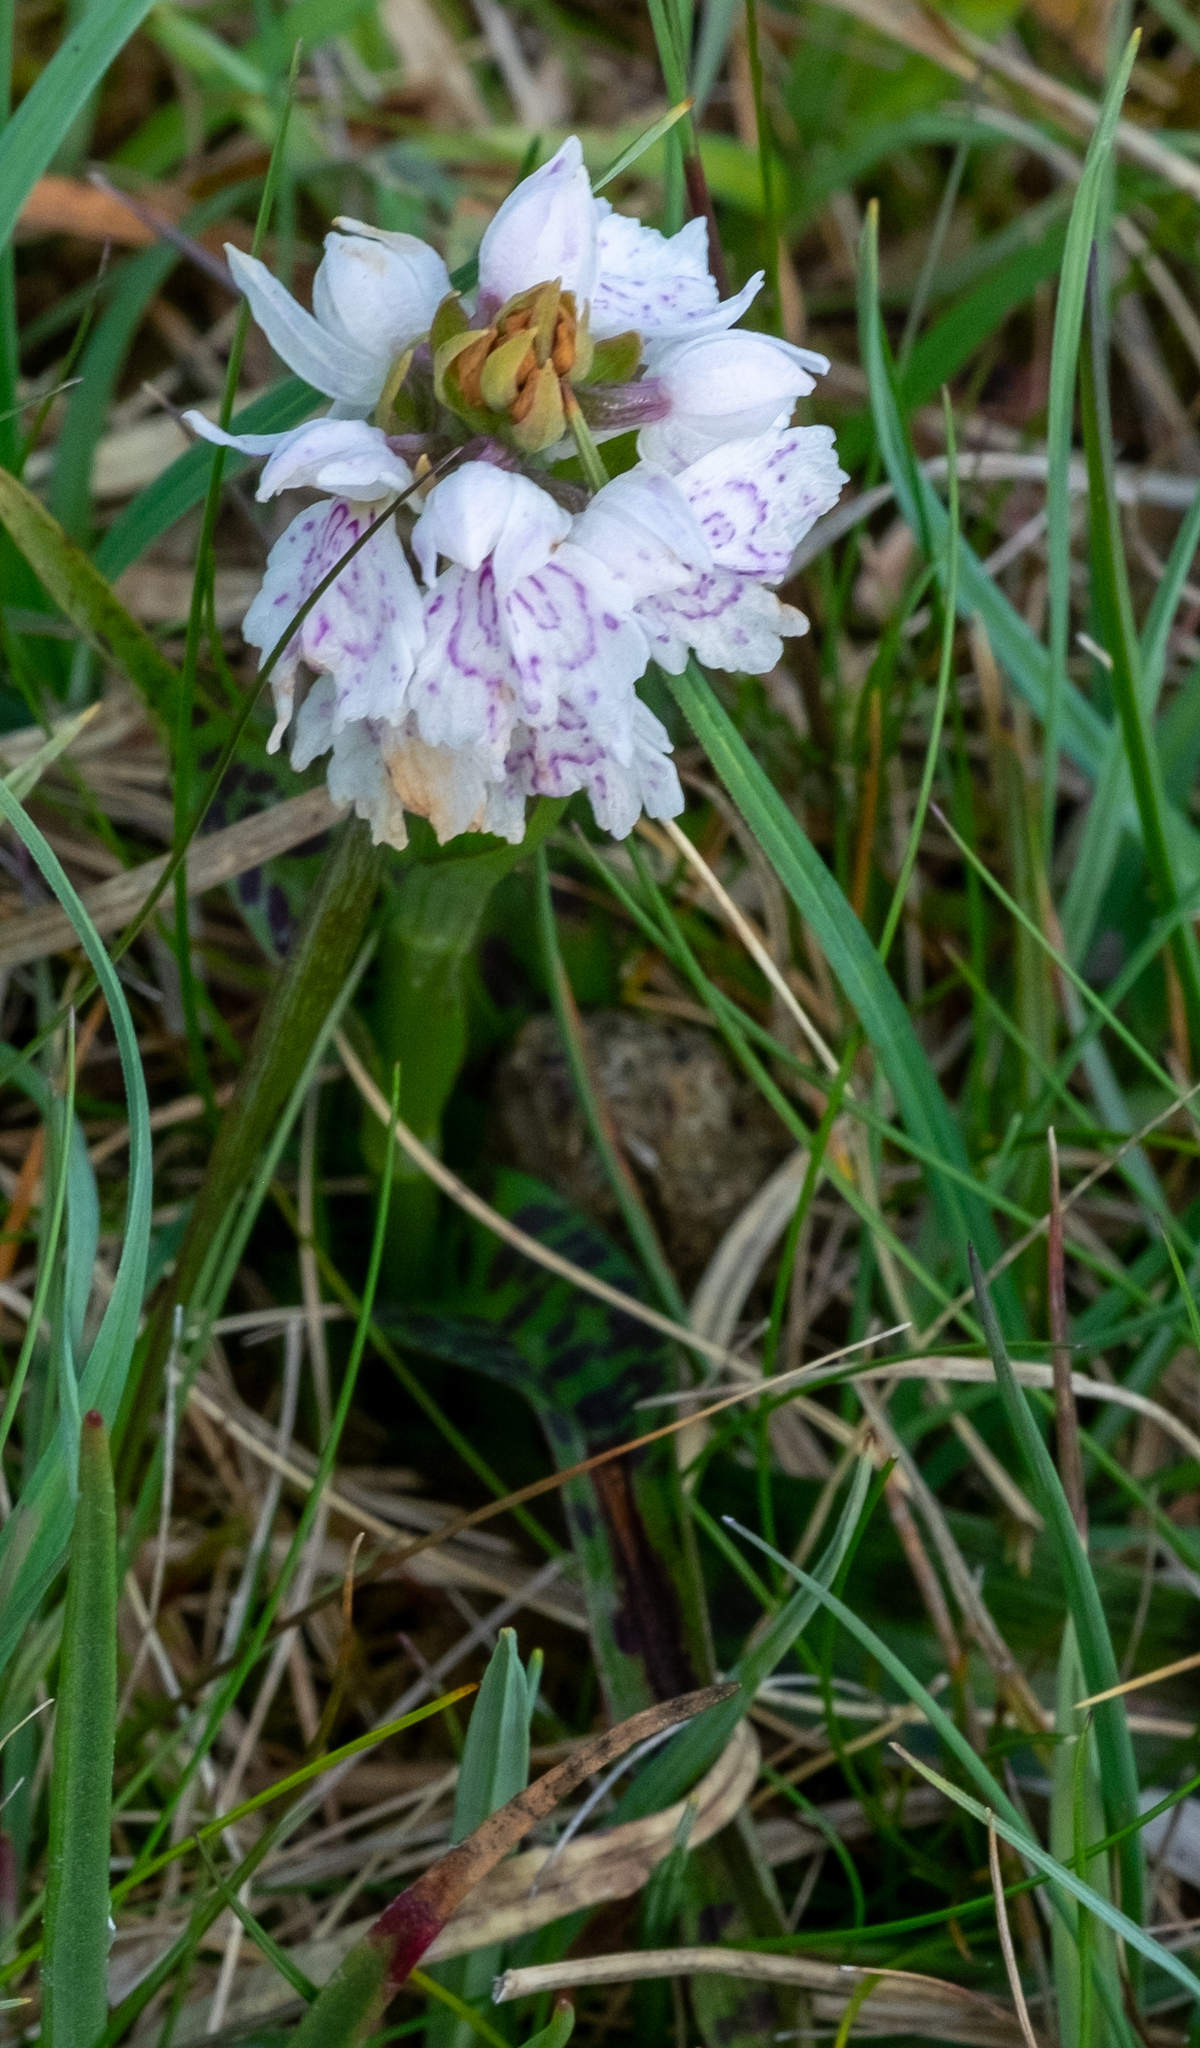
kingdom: Plantae
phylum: Tracheophyta
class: Liliopsida
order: Asparagales
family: Orchidaceae
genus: Dactylorhiza
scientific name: Dactylorhiza maculata
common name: Heath spotted-orchid
